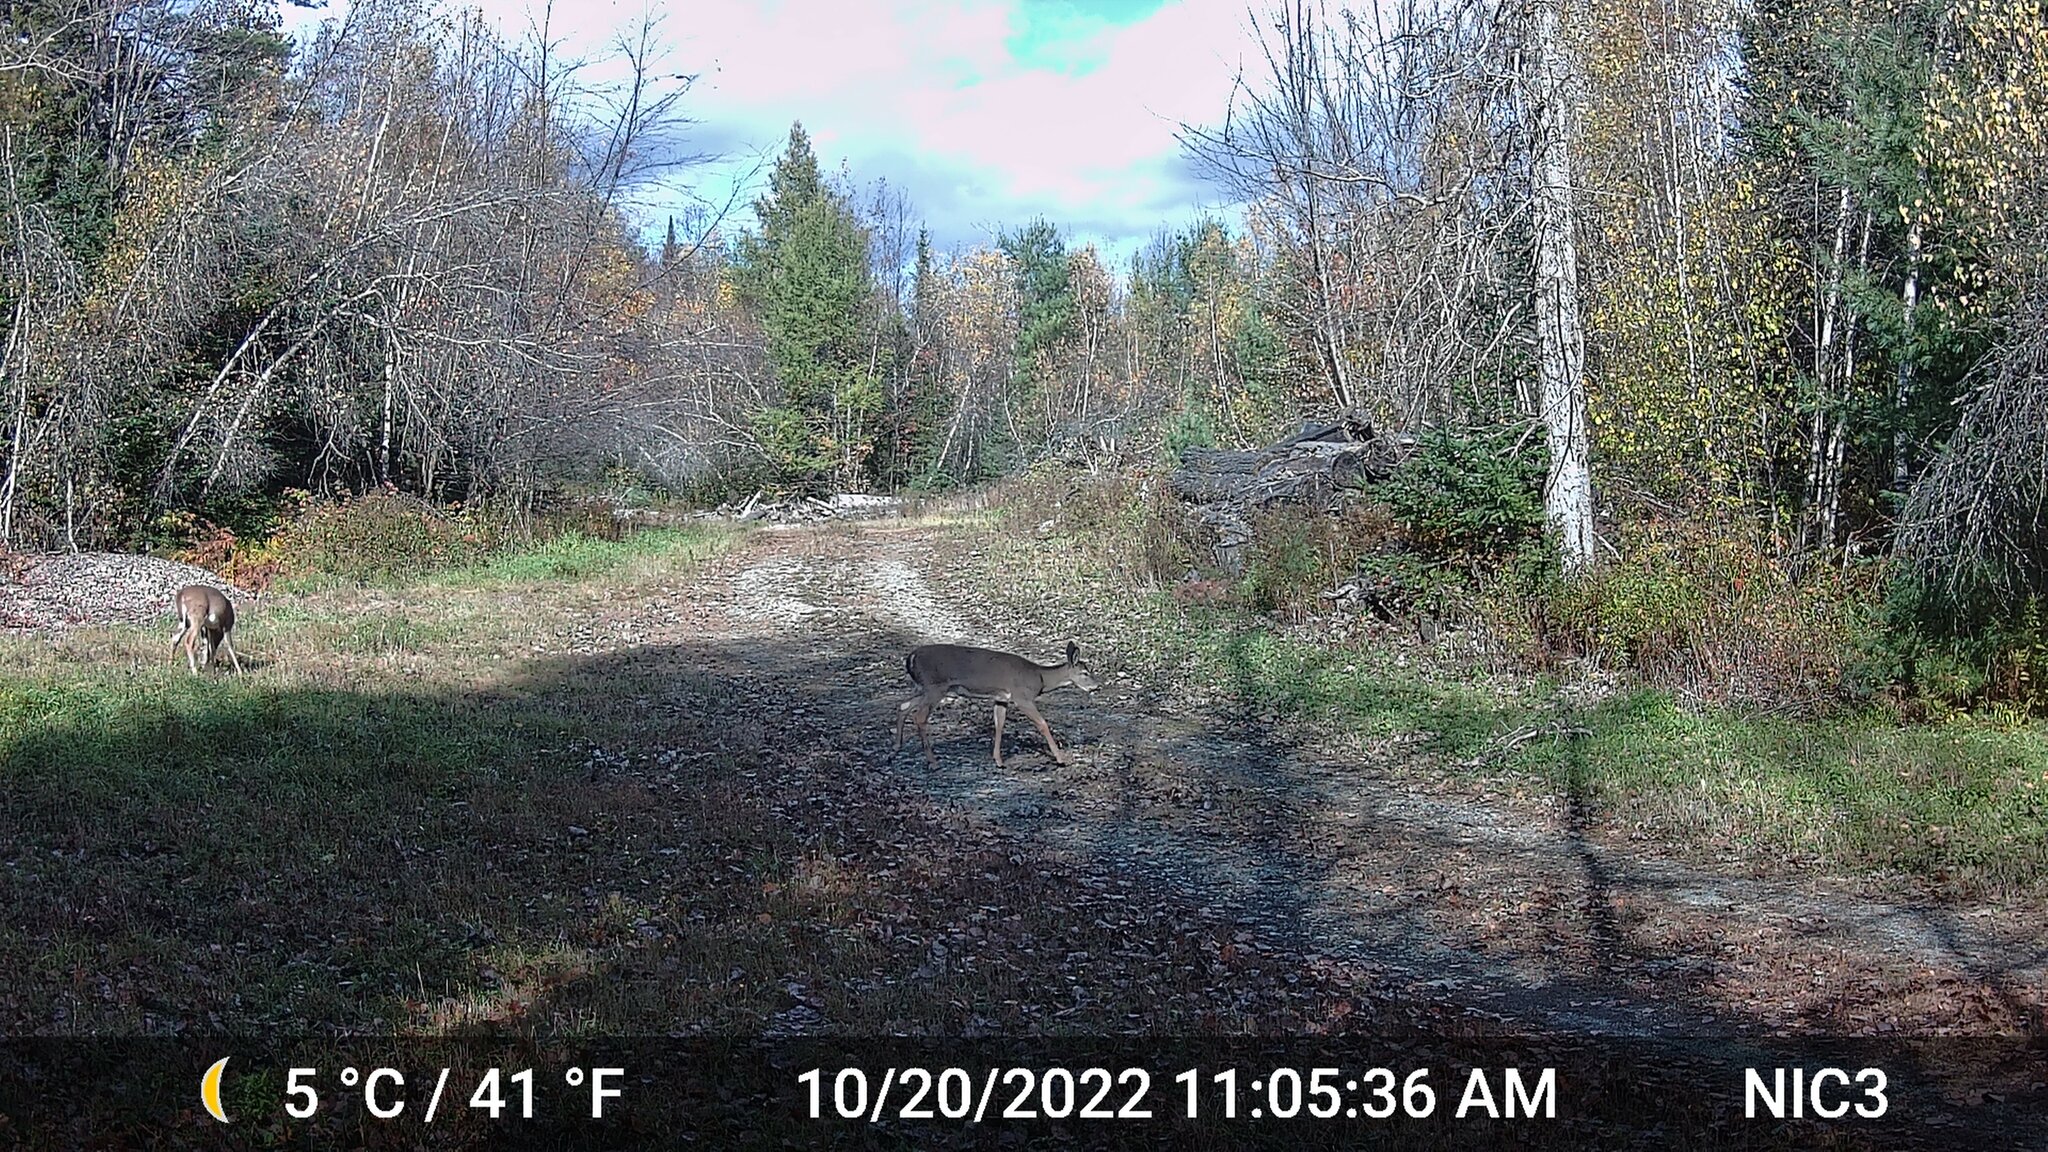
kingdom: Animalia
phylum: Chordata
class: Mammalia
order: Artiodactyla
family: Cervidae
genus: Odocoileus
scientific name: Odocoileus virginianus
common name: White-tailed deer
